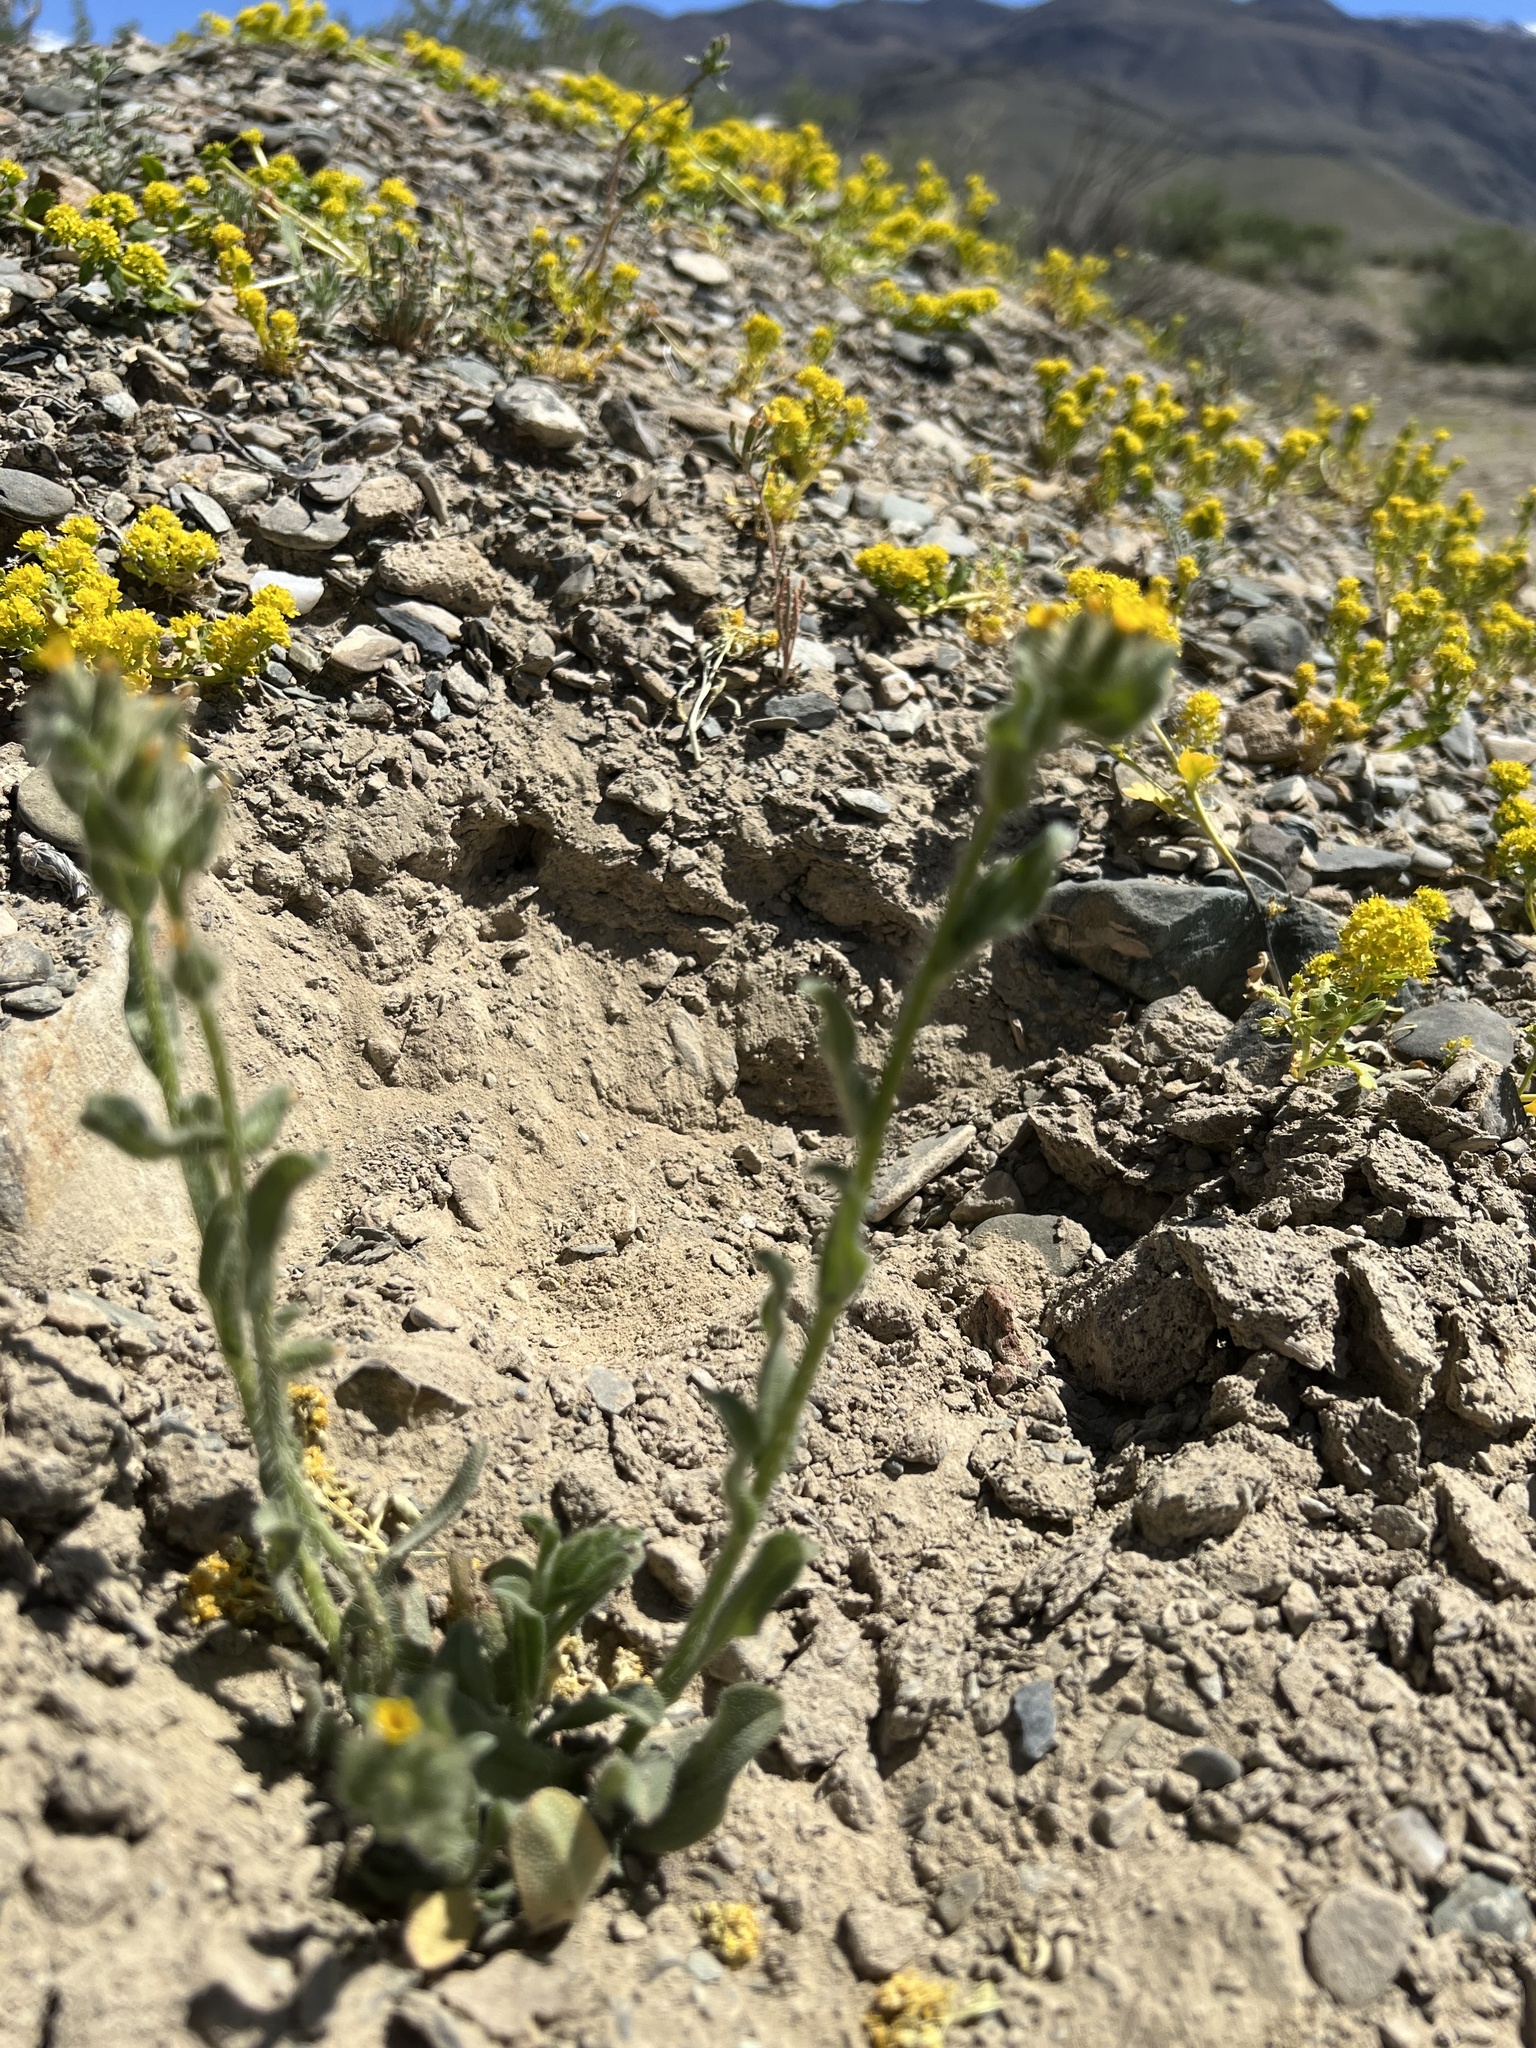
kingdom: Plantae
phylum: Tracheophyta
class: Magnoliopsida
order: Boraginales
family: Boraginaceae
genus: Amsinckia
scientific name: Amsinckia tessellata
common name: Tessellate fiddleneck
